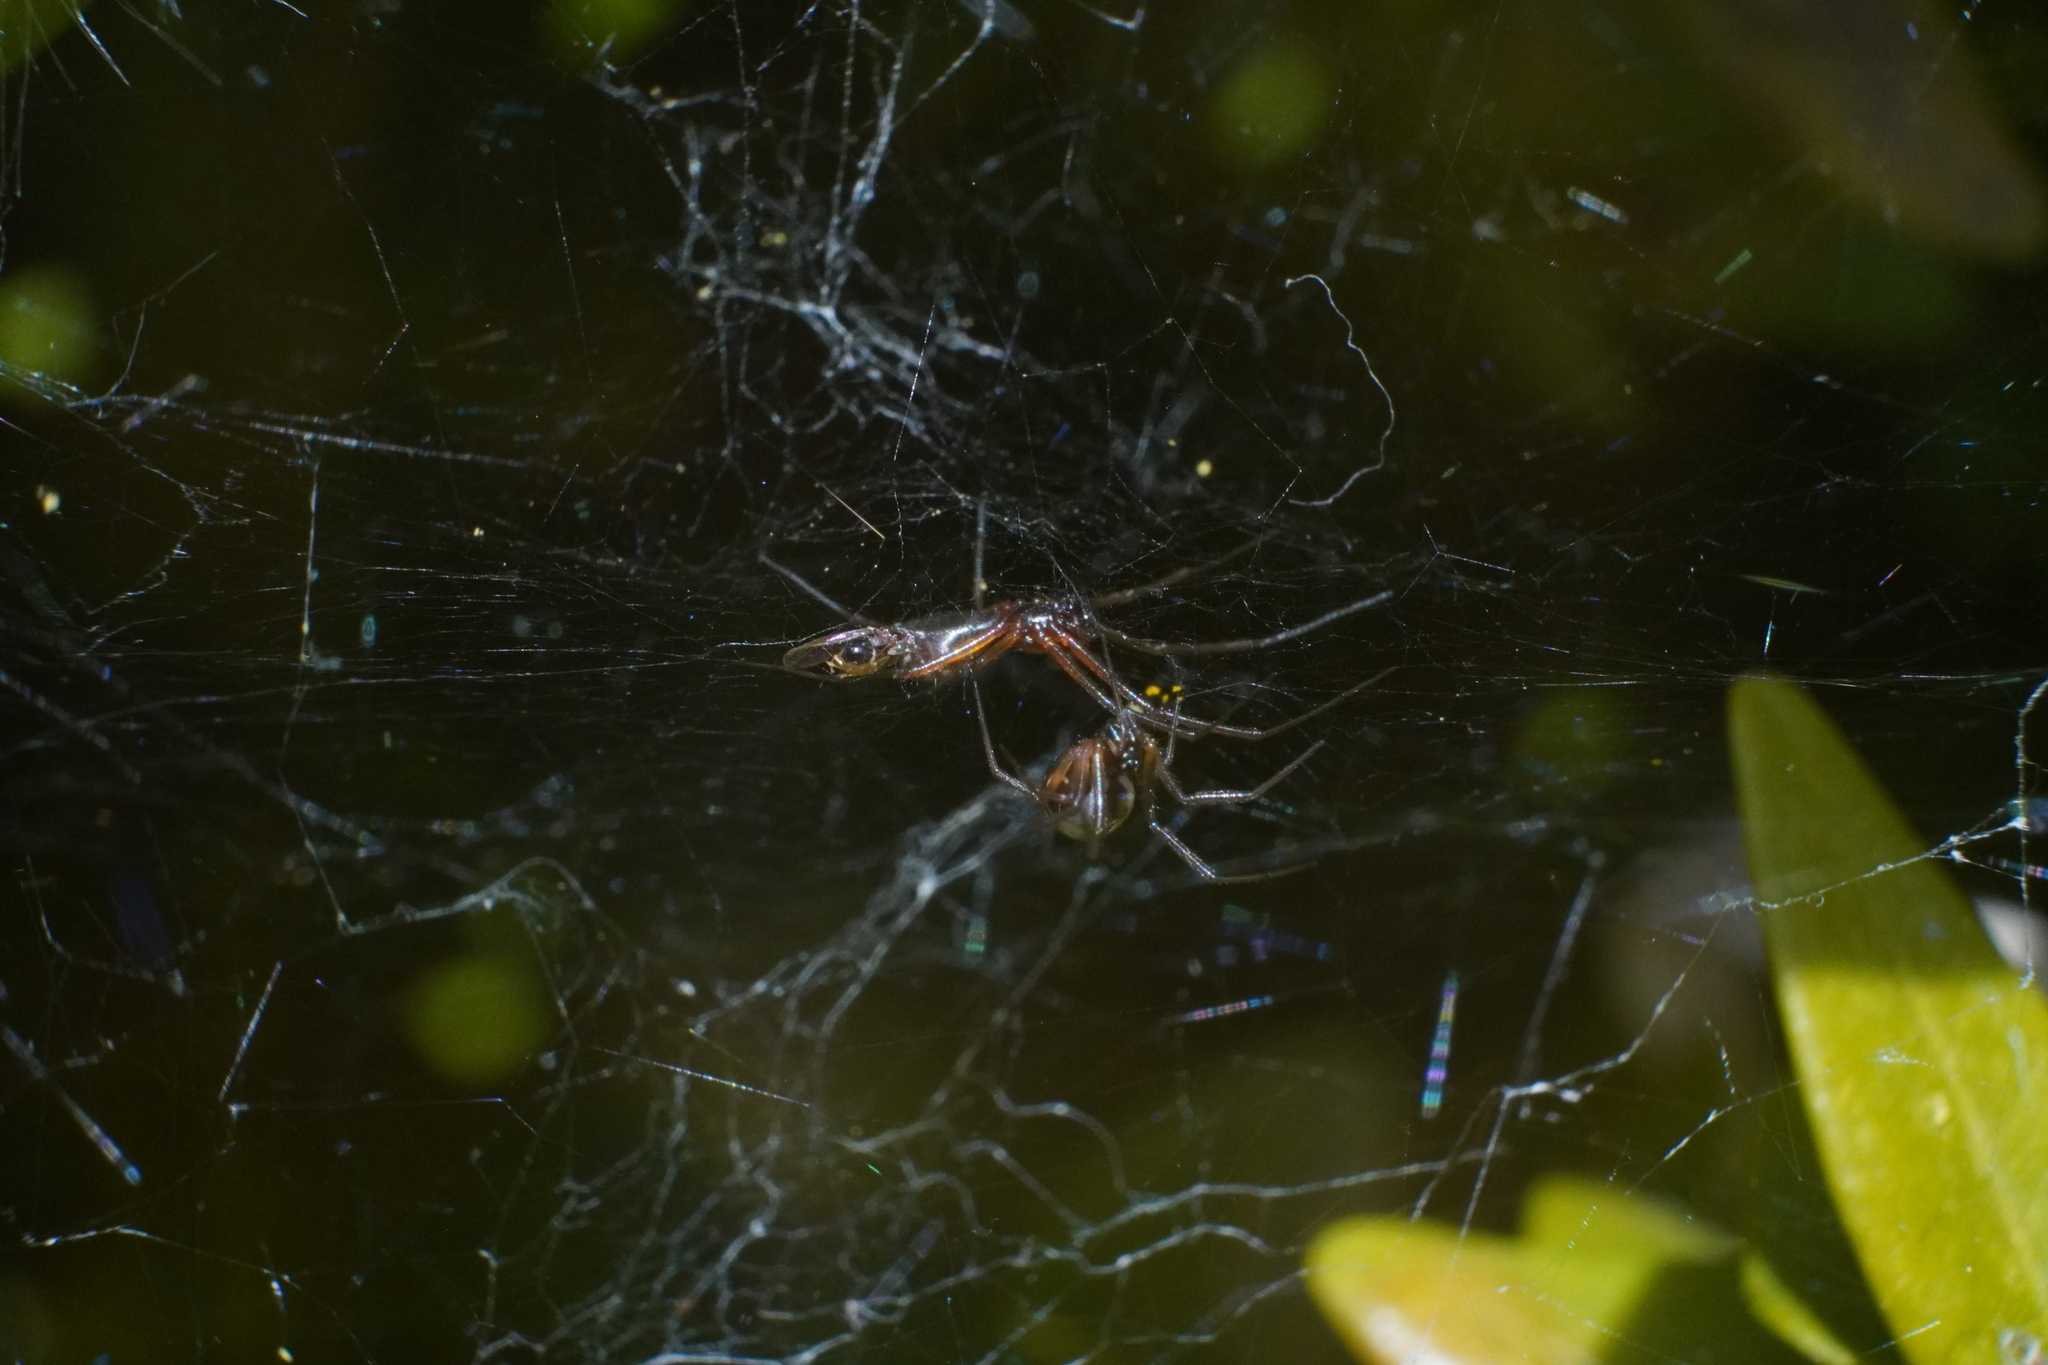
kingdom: Animalia
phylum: Arthropoda
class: Arachnida
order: Araneae
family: Linyphiidae
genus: Frontinella
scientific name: Frontinella pyramitela
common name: Bowl-and-doily spider
